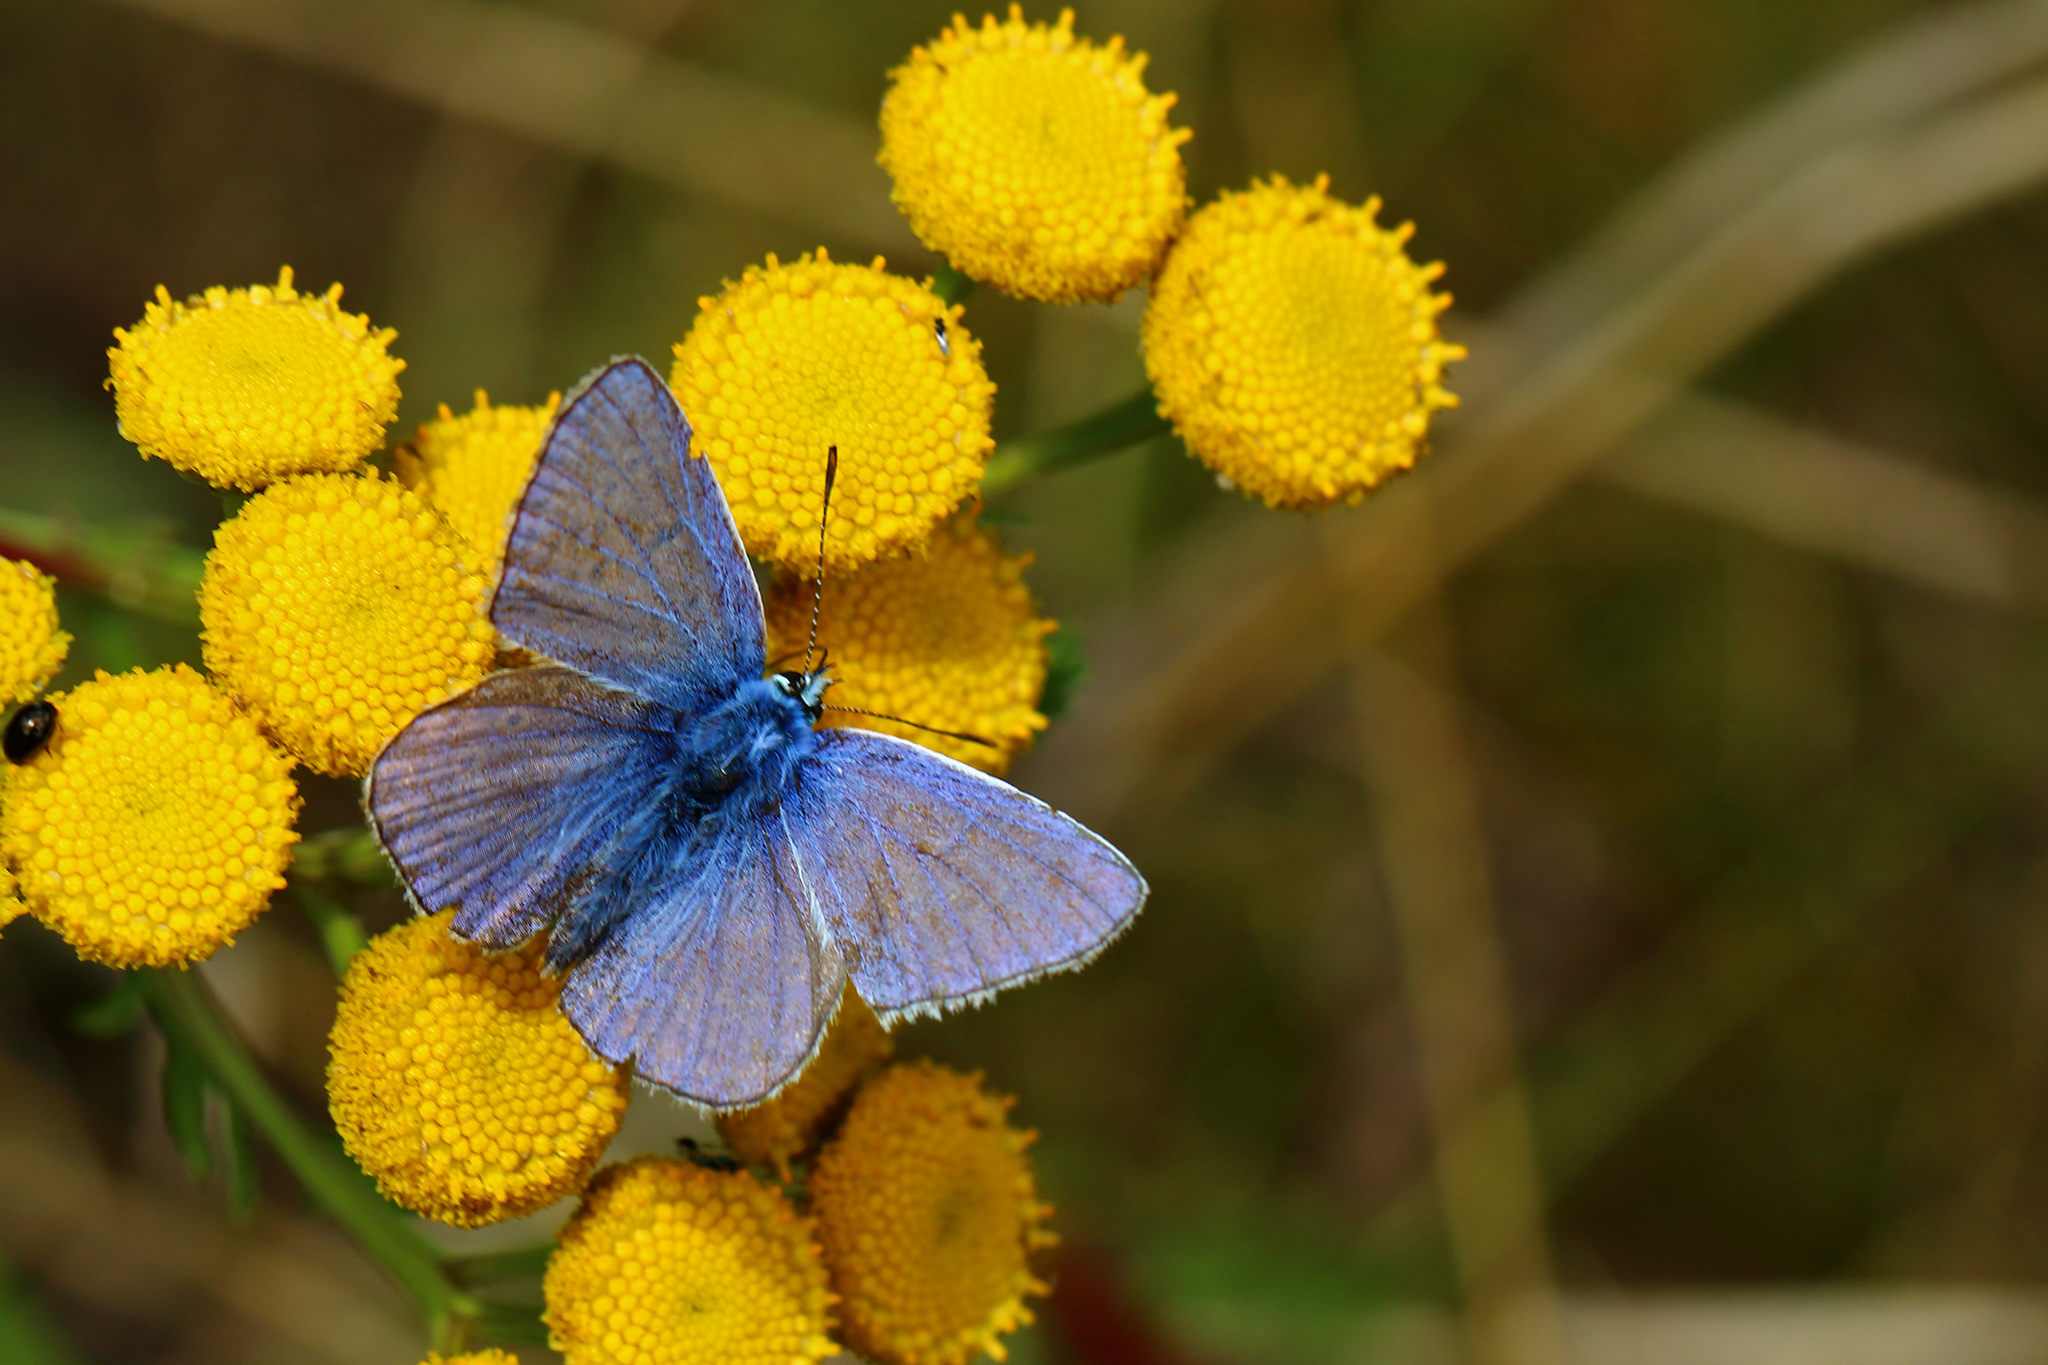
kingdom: Animalia
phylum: Arthropoda
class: Insecta
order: Lepidoptera
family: Lycaenidae
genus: Polyommatus
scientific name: Polyommatus icarus
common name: Common blue
